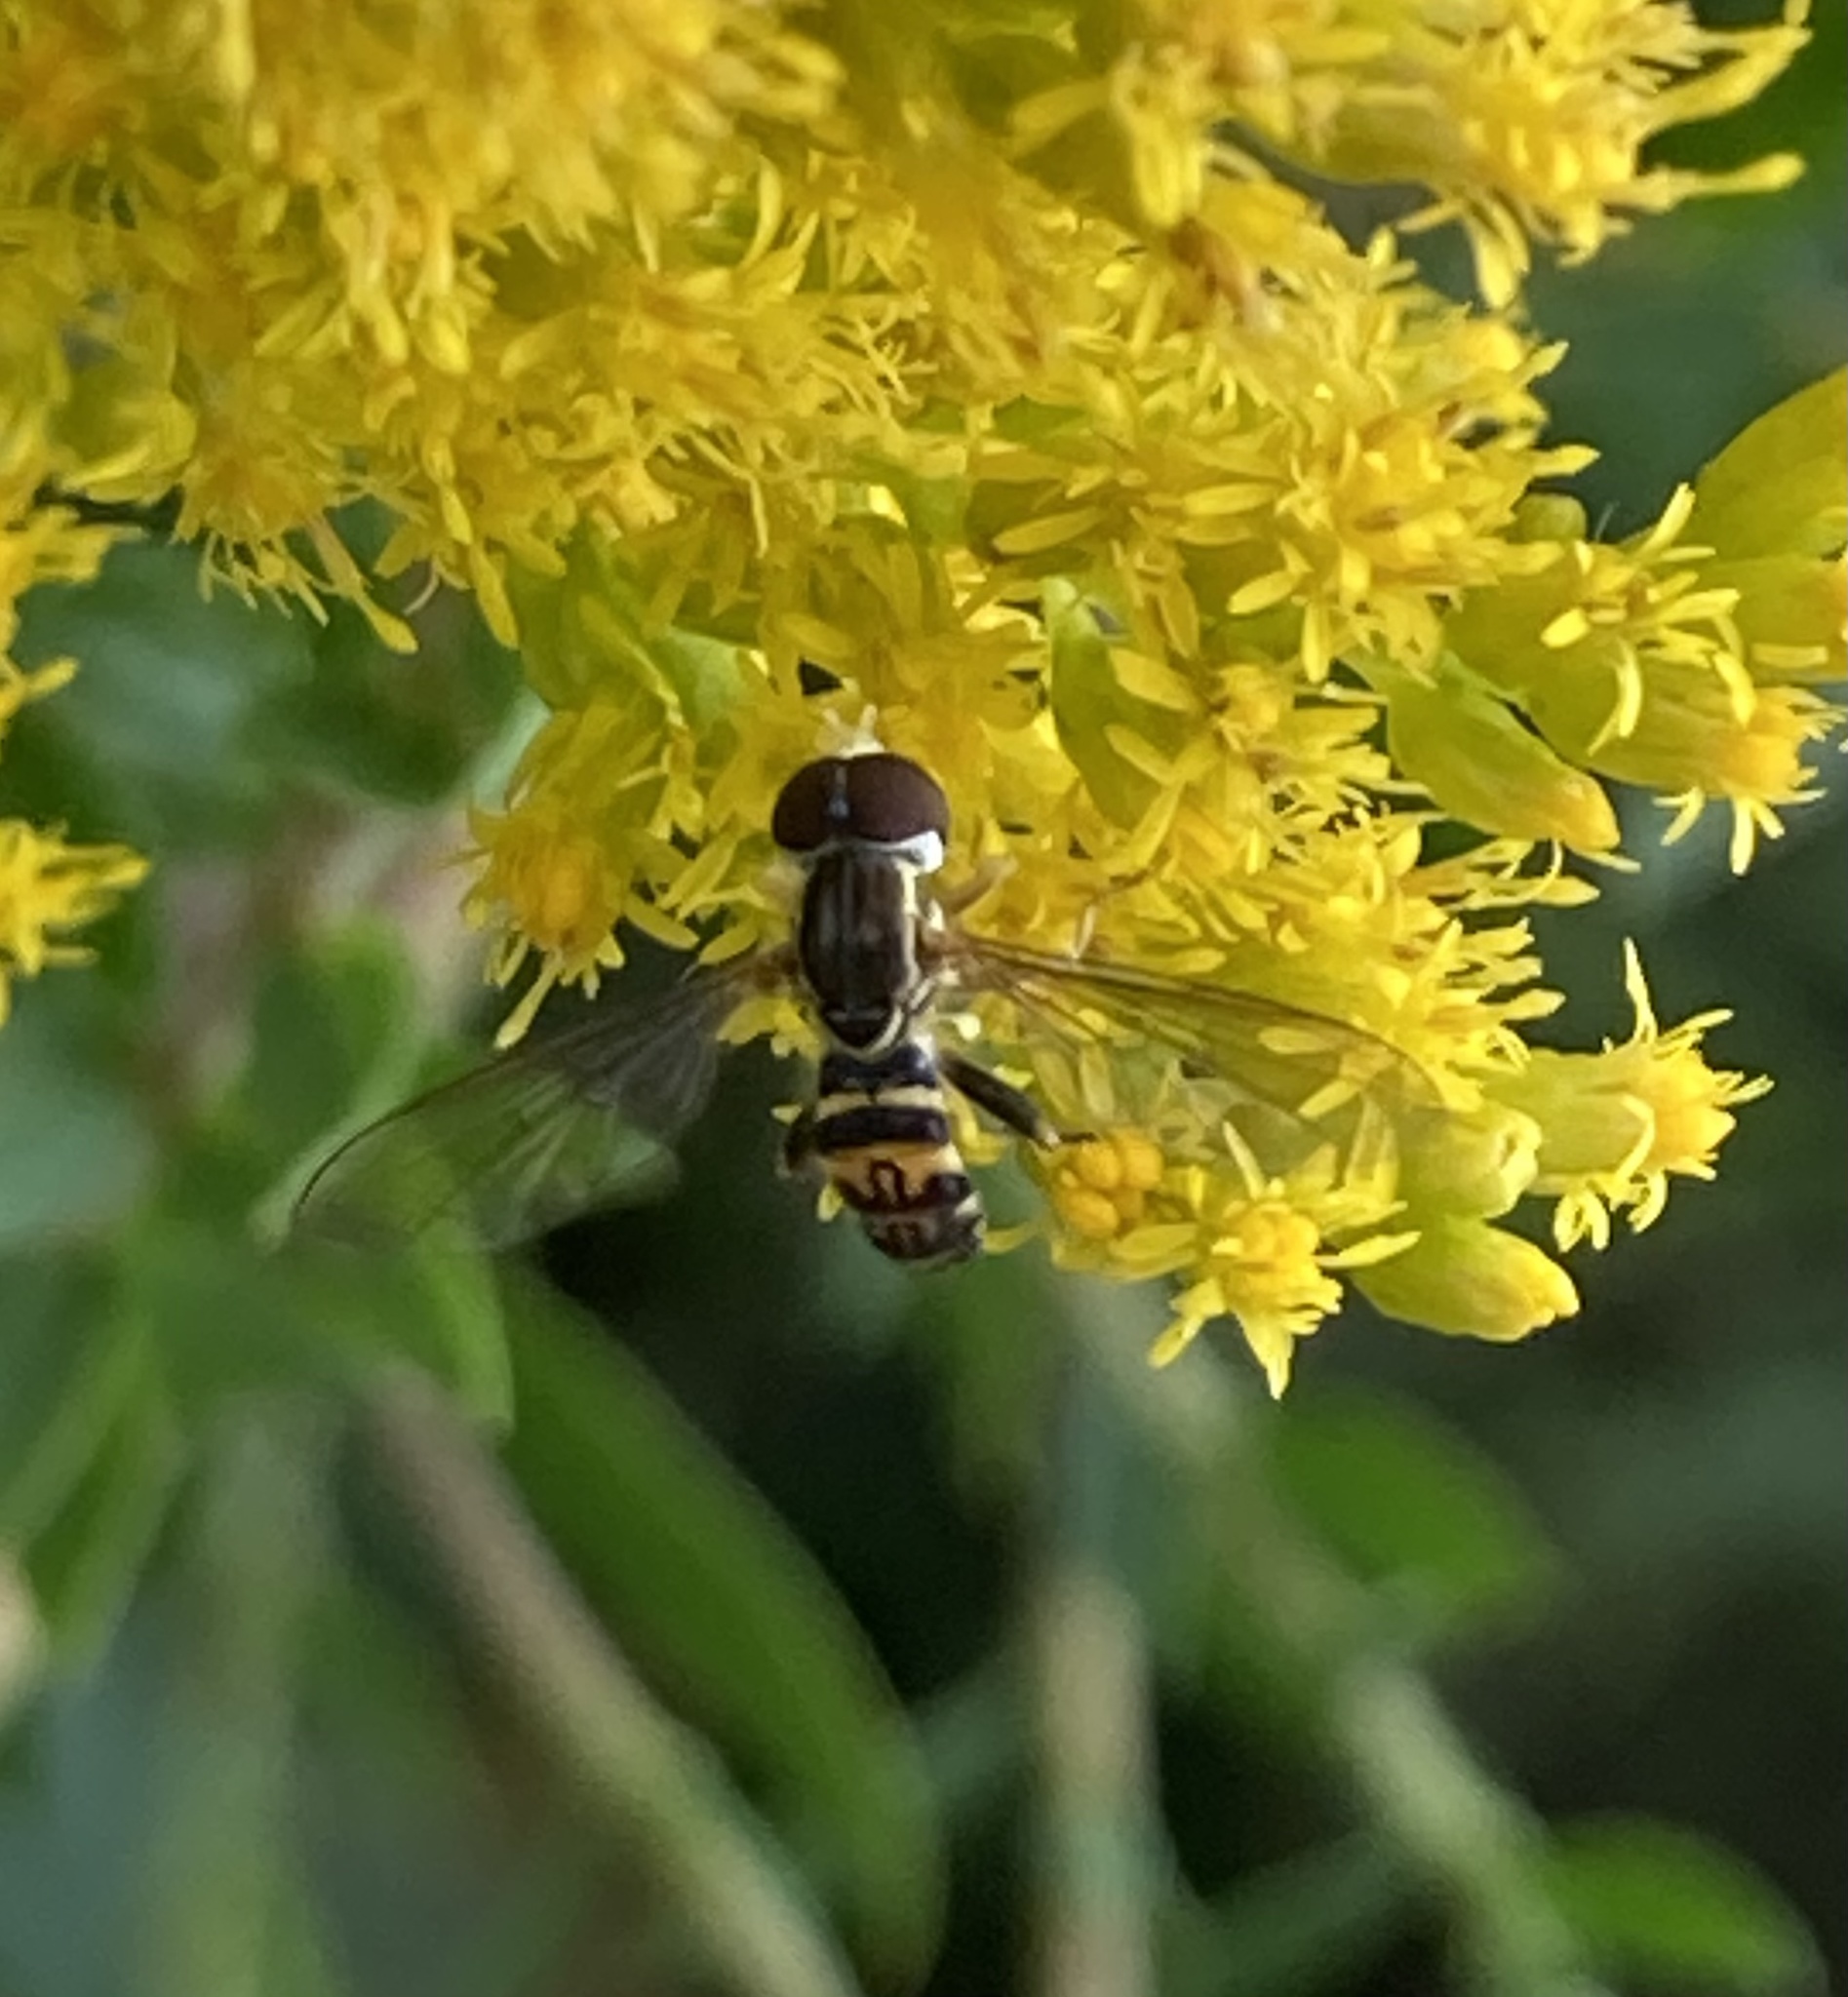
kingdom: Animalia
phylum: Arthropoda
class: Insecta
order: Diptera
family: Syrphidae
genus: Toxomerus
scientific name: Toxomerus geminatus
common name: Eastern calligrapher
